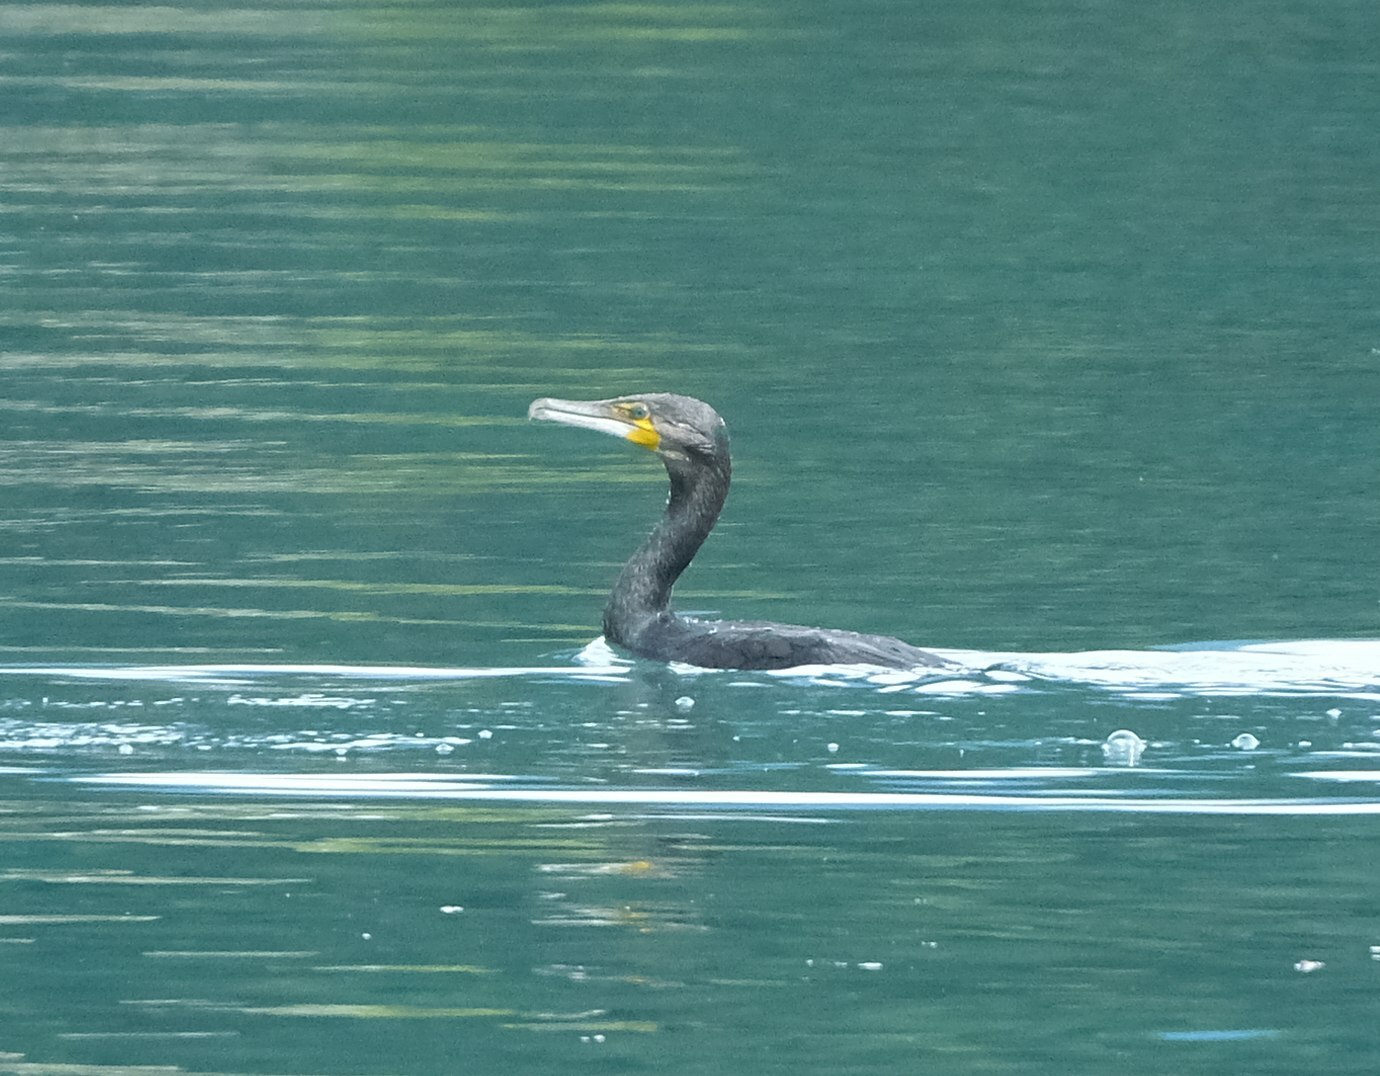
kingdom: Animalia
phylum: Chordata
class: Aves
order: Suliformes
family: Phalacrocoracidae
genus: Phalacrocorax
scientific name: Phalacrocorax carbo
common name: Great cormorant
